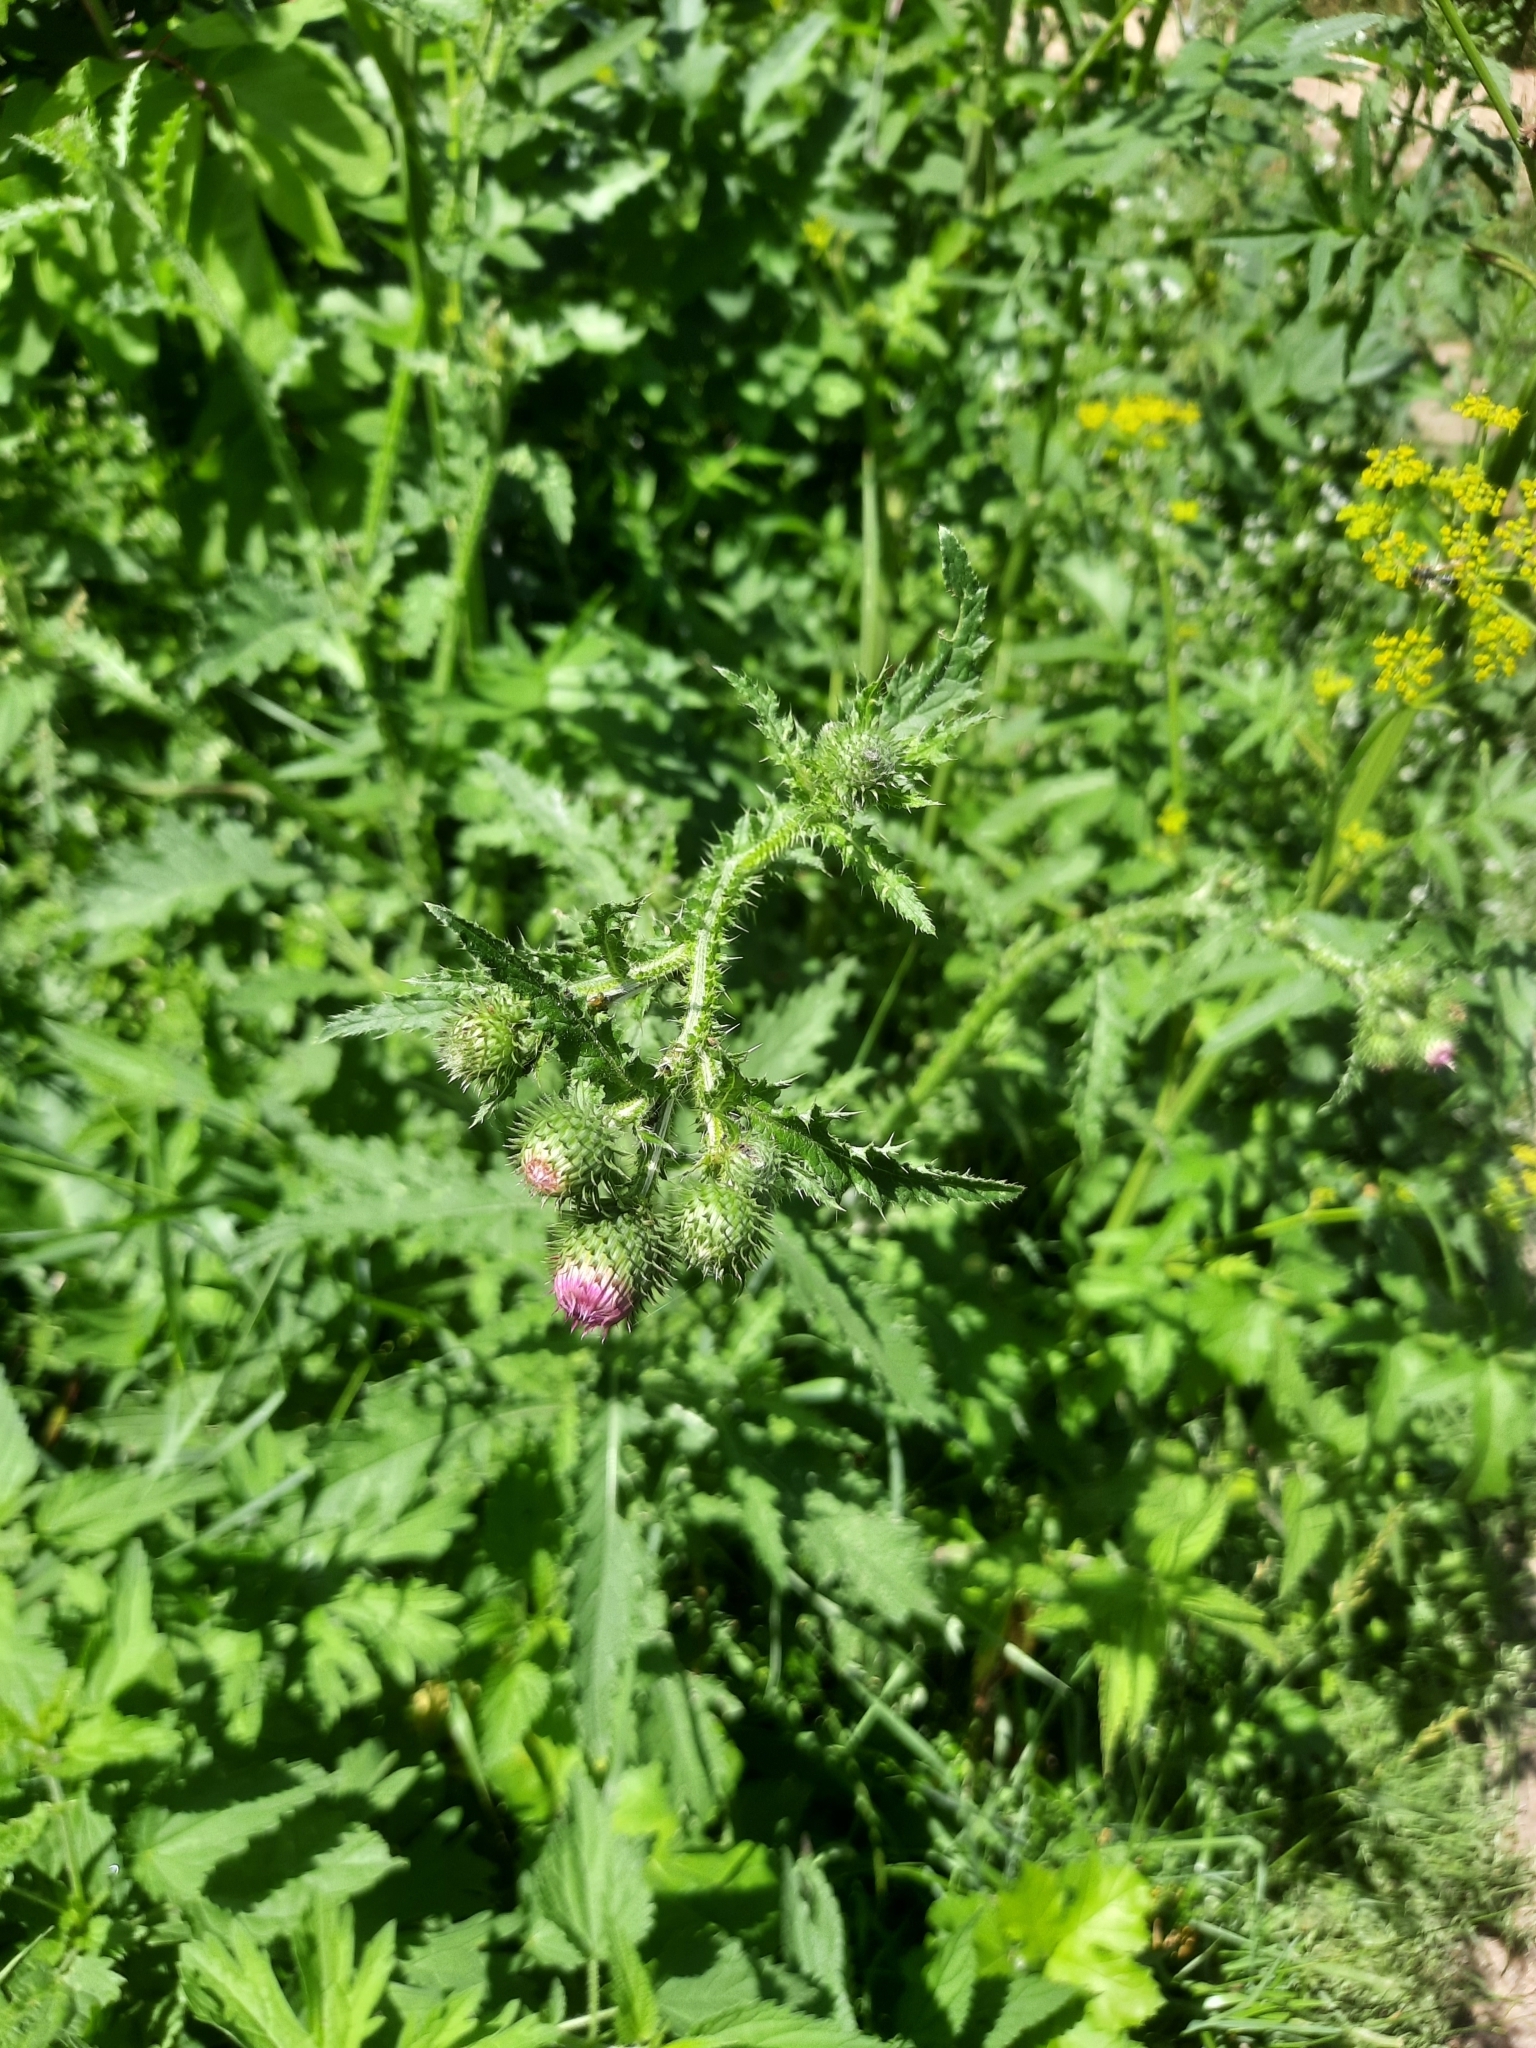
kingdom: Plantae
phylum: Tracheophyta
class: Magnoliopsida
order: Asterales
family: Asteraceae
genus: Carduus
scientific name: Carduus crispus
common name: Welted thistle
